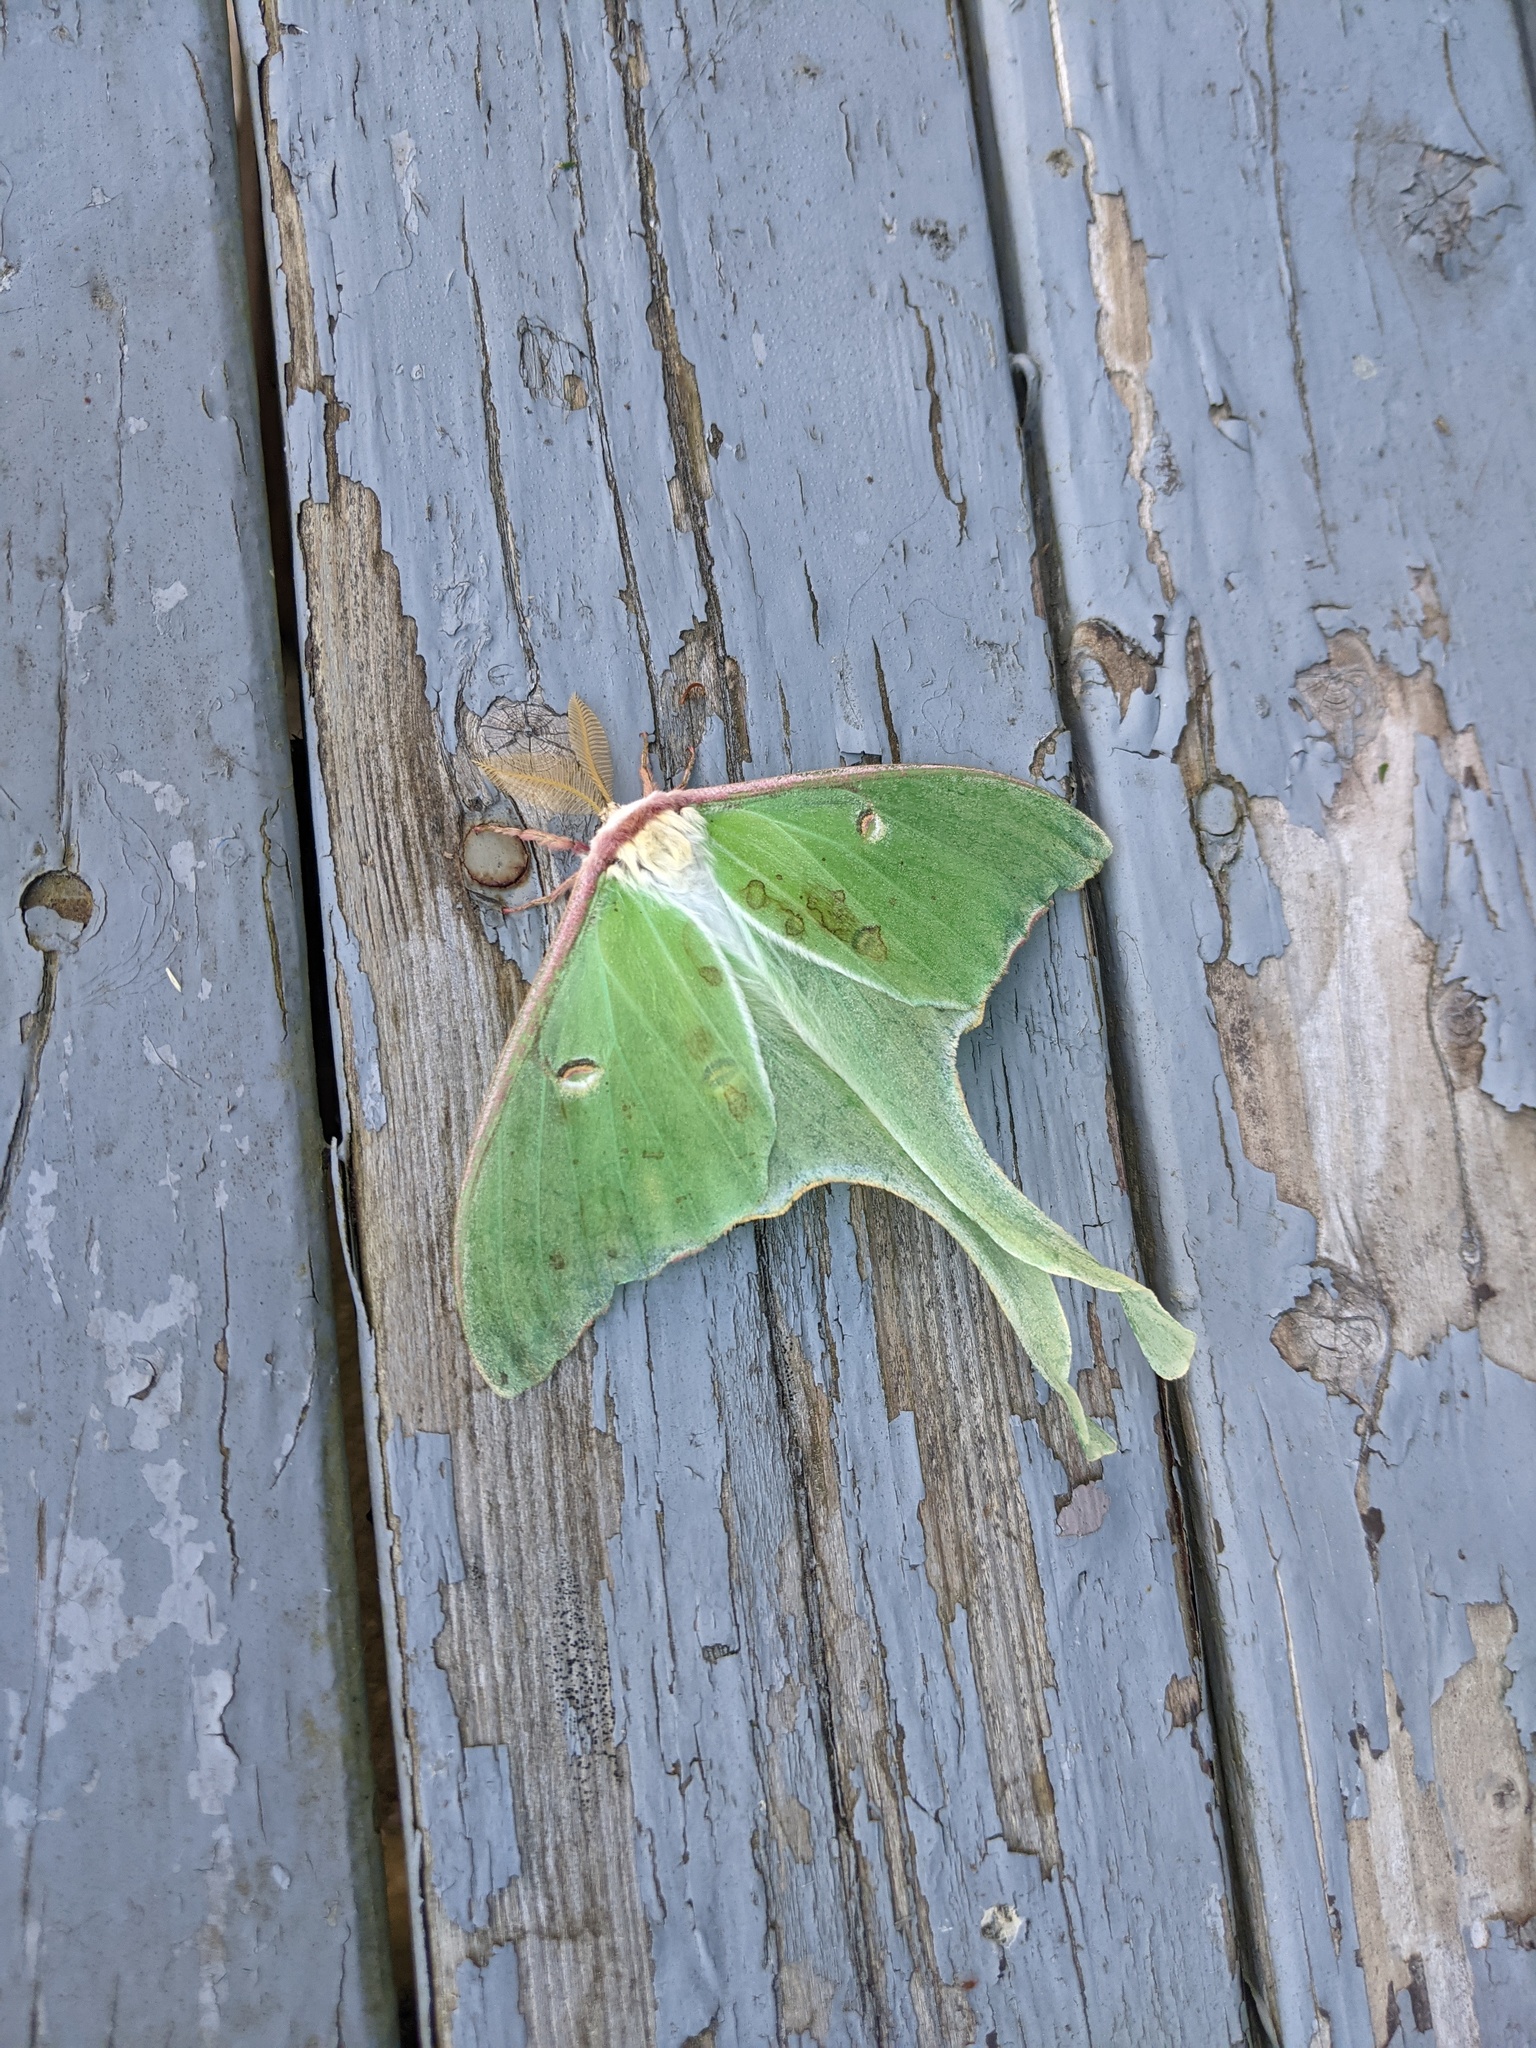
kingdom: Animalia
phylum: Arthropoda
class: Insecta
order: Lepidoptera
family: Saturniidae
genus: Actias
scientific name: Actias luna
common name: Luna moth
